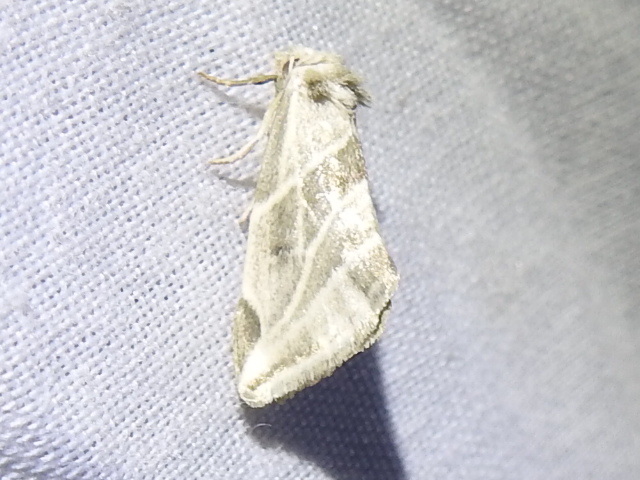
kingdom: Animalia
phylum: Arthropoda
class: Insecta
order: Lepidoptera
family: Noctuidae
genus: Plagiomimicus
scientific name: Plagiomimicus tepperi
